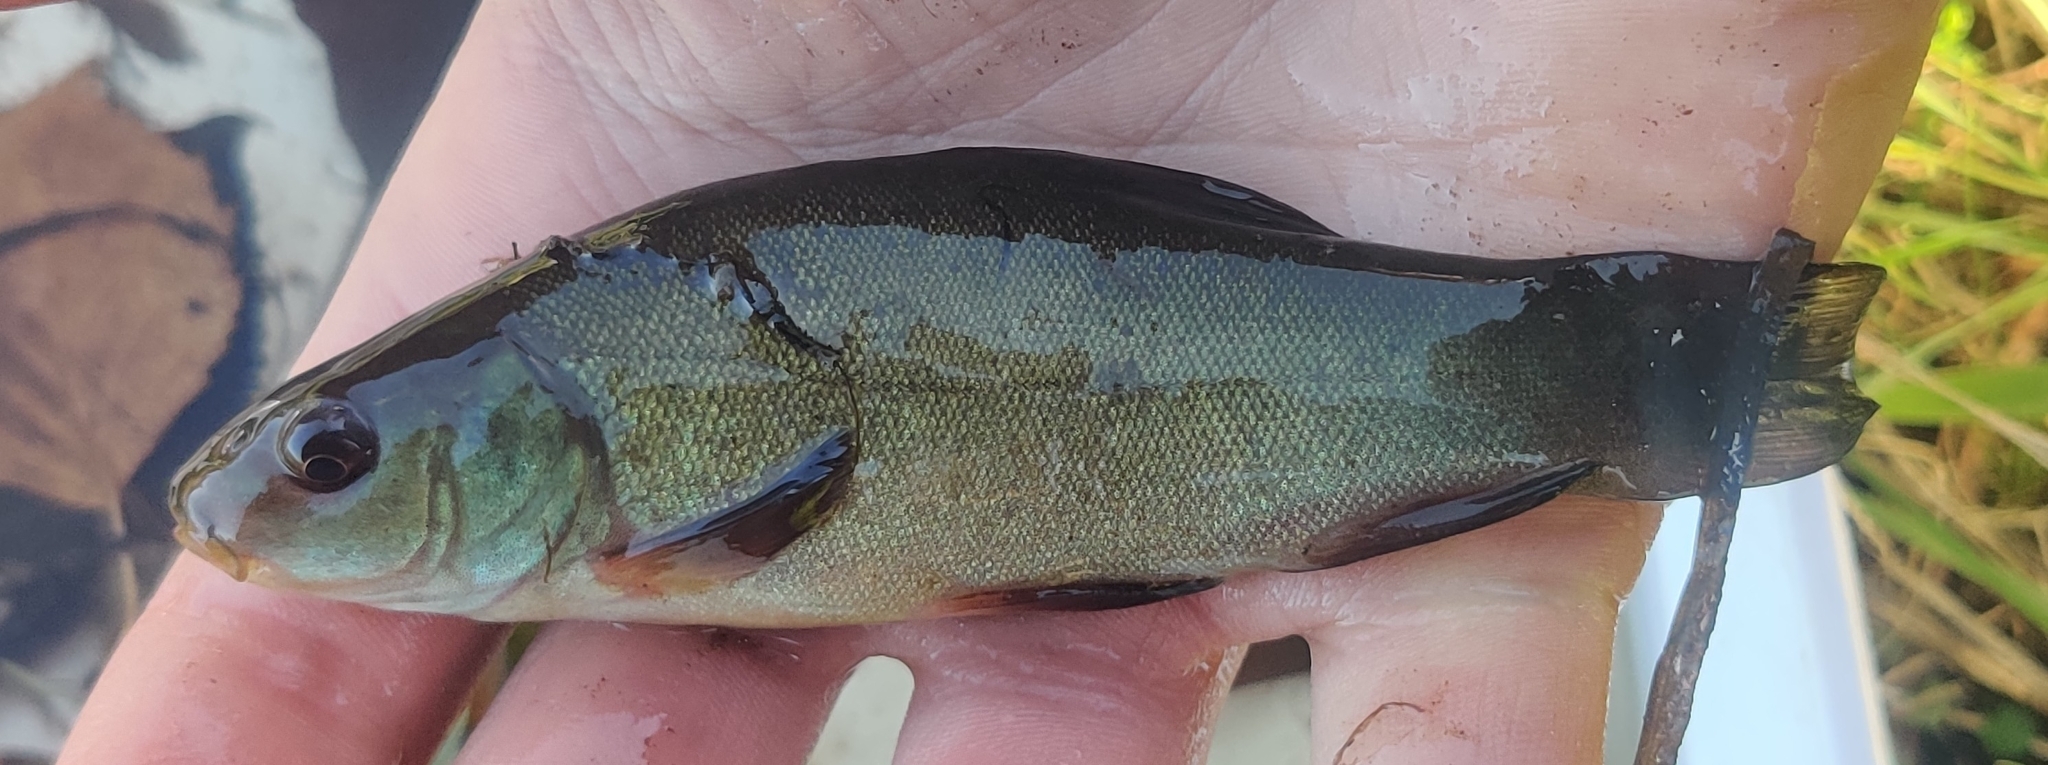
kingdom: Animalia
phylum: Chordata
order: Cypriniformes
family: Cyprinidae
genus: Tinca
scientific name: Tinca tinca
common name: Tench
